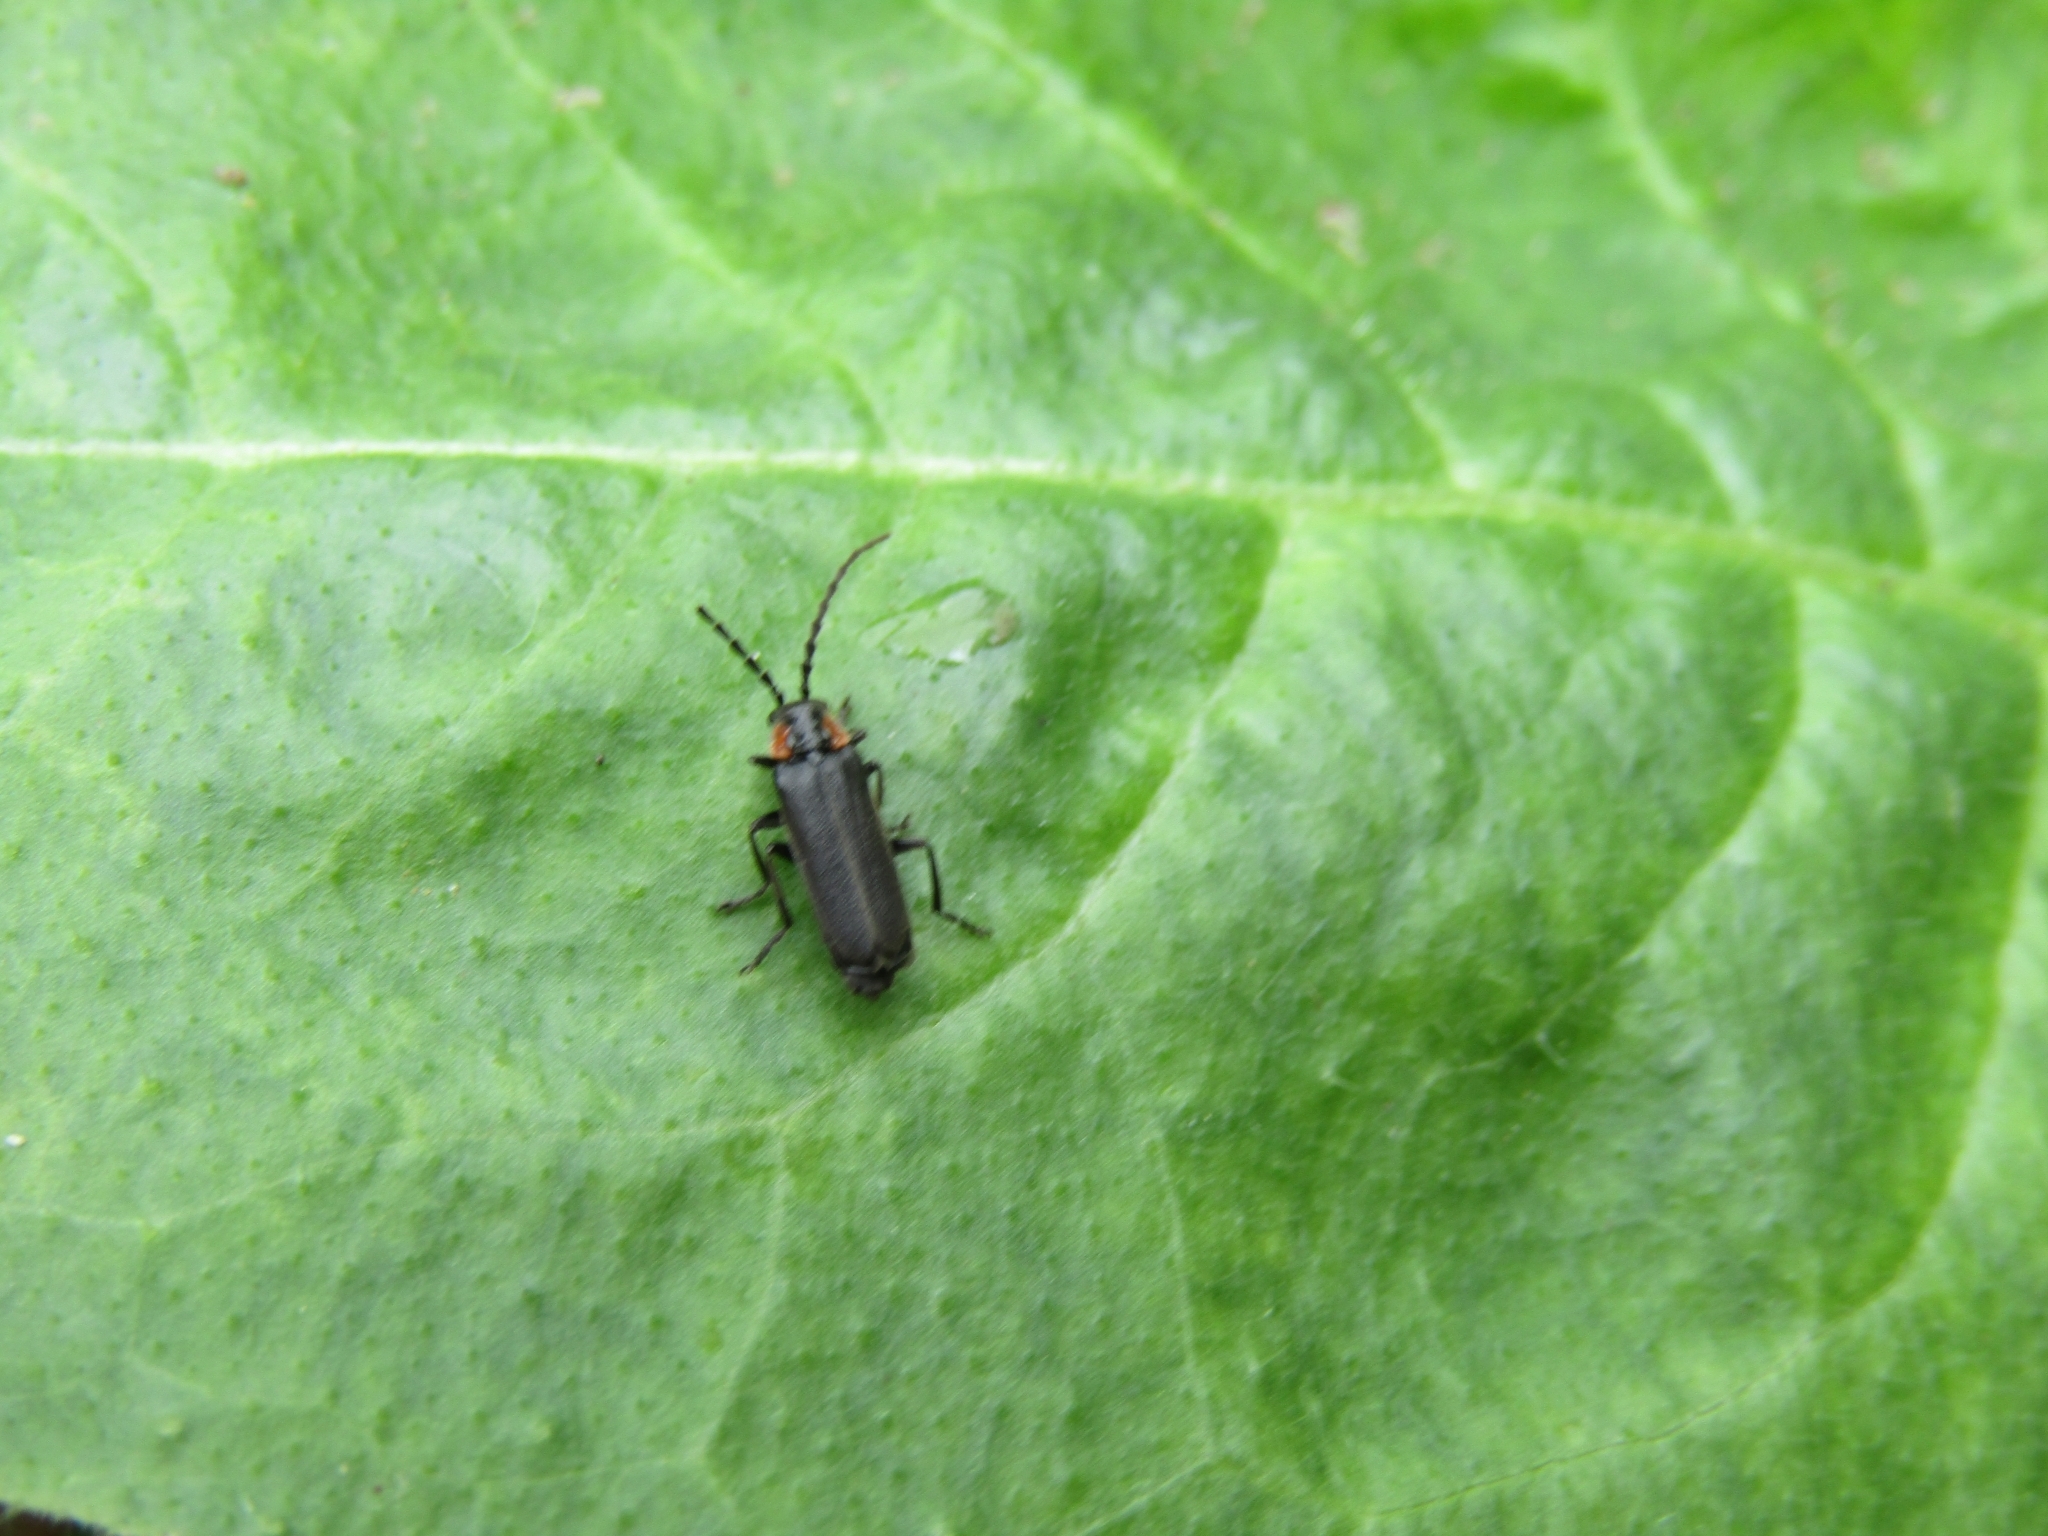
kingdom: Animalia
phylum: Arthropoda
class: Insecta
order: Coleoptera
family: Cantharidae
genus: Polemius
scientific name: Polemius
